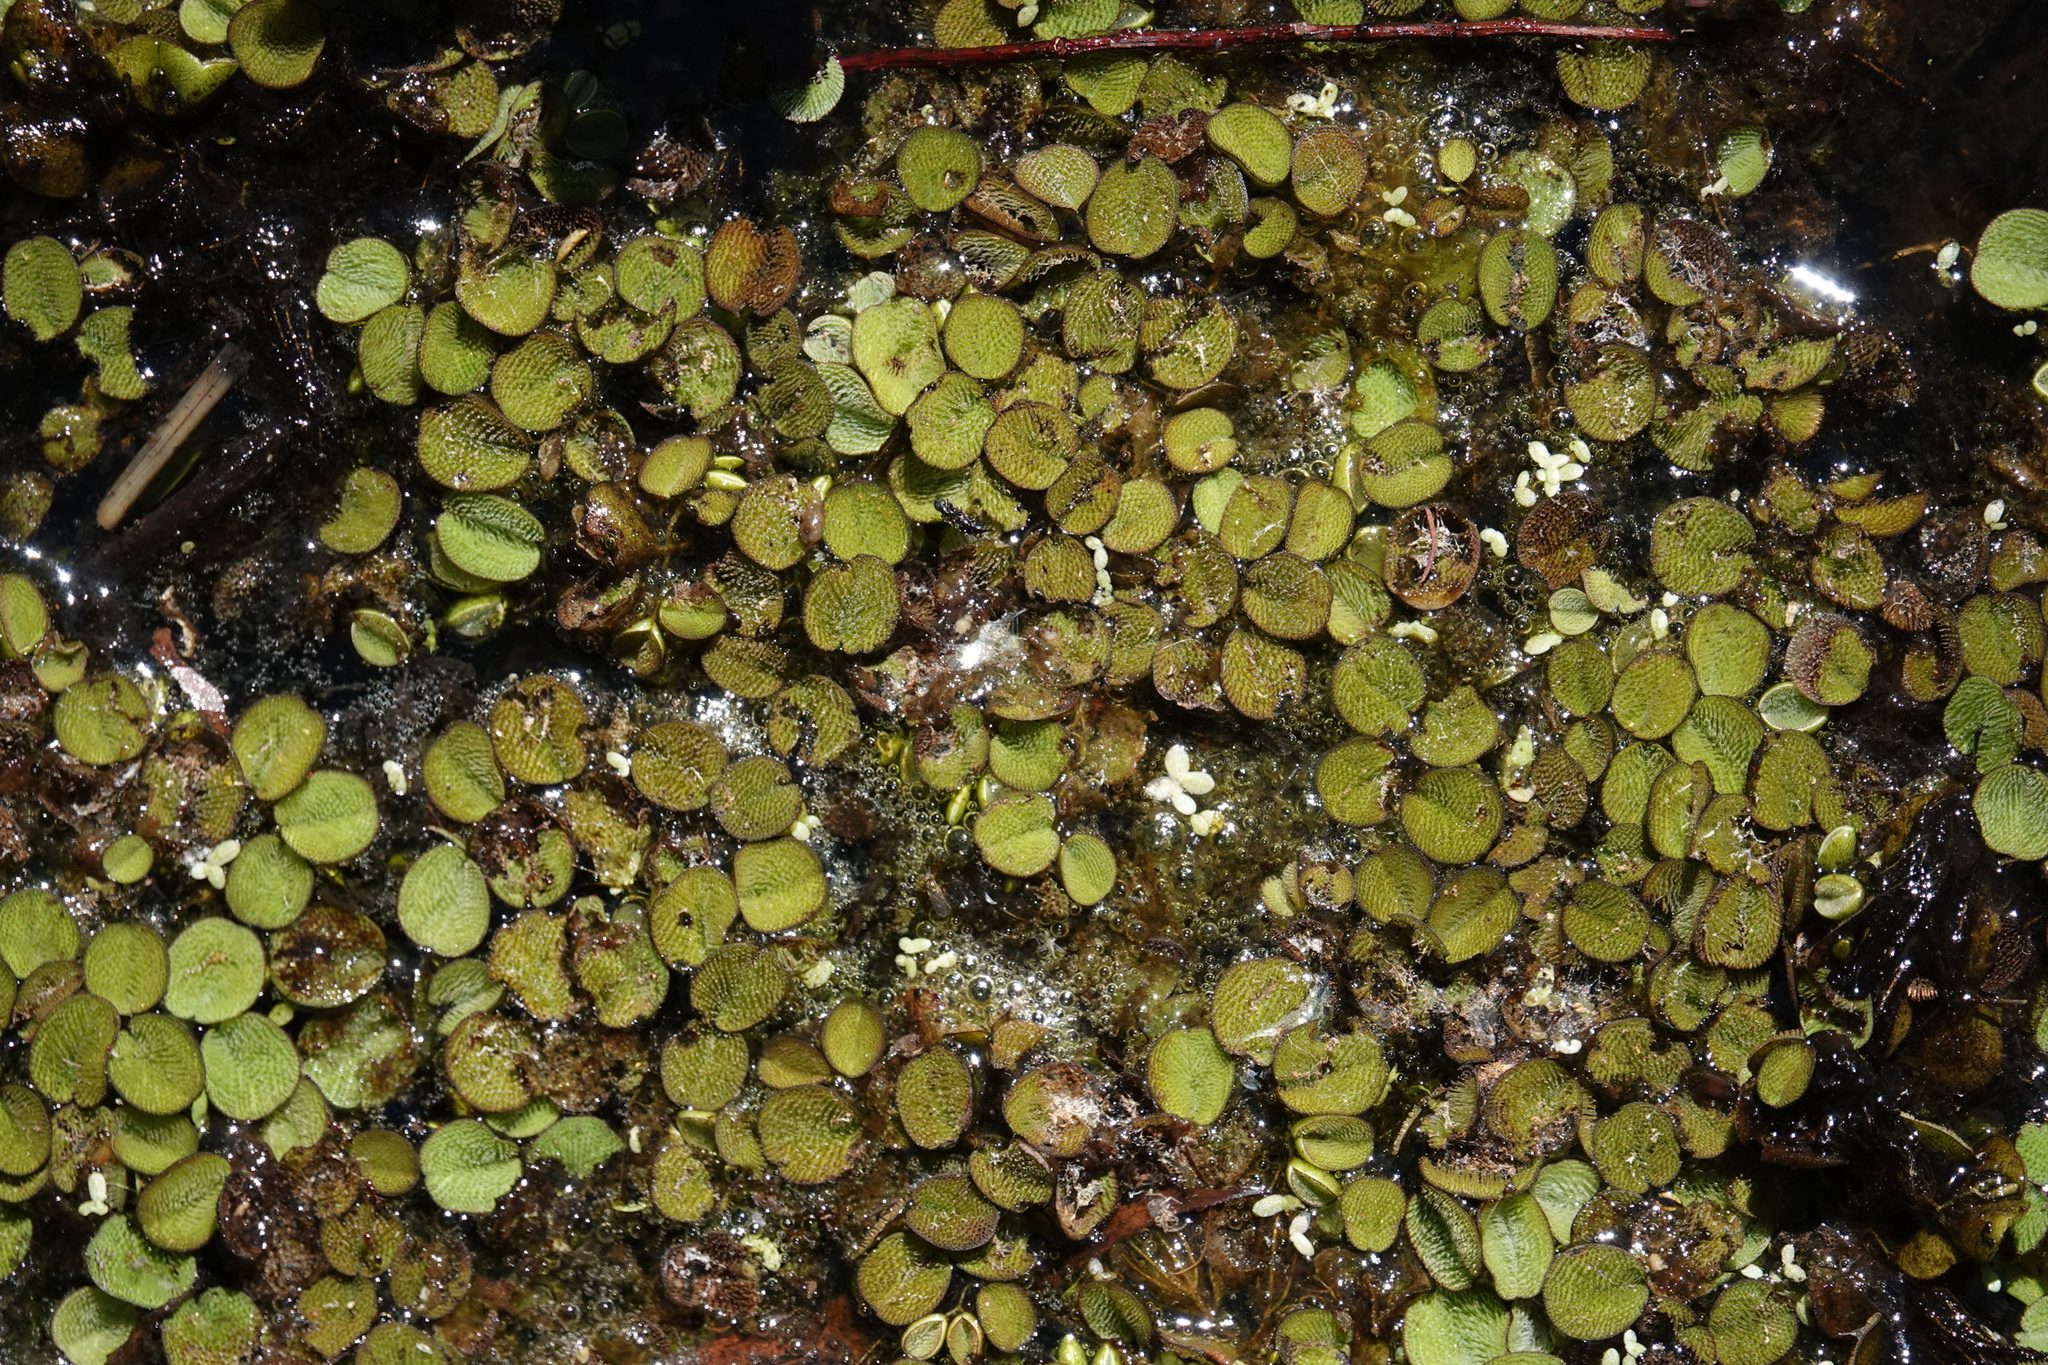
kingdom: Plantae
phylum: Tracheophyta
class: Polypodiopsida
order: Salviniales
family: Salviniaceae
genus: Salvinia
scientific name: Salvinia minima
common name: Water spangles
